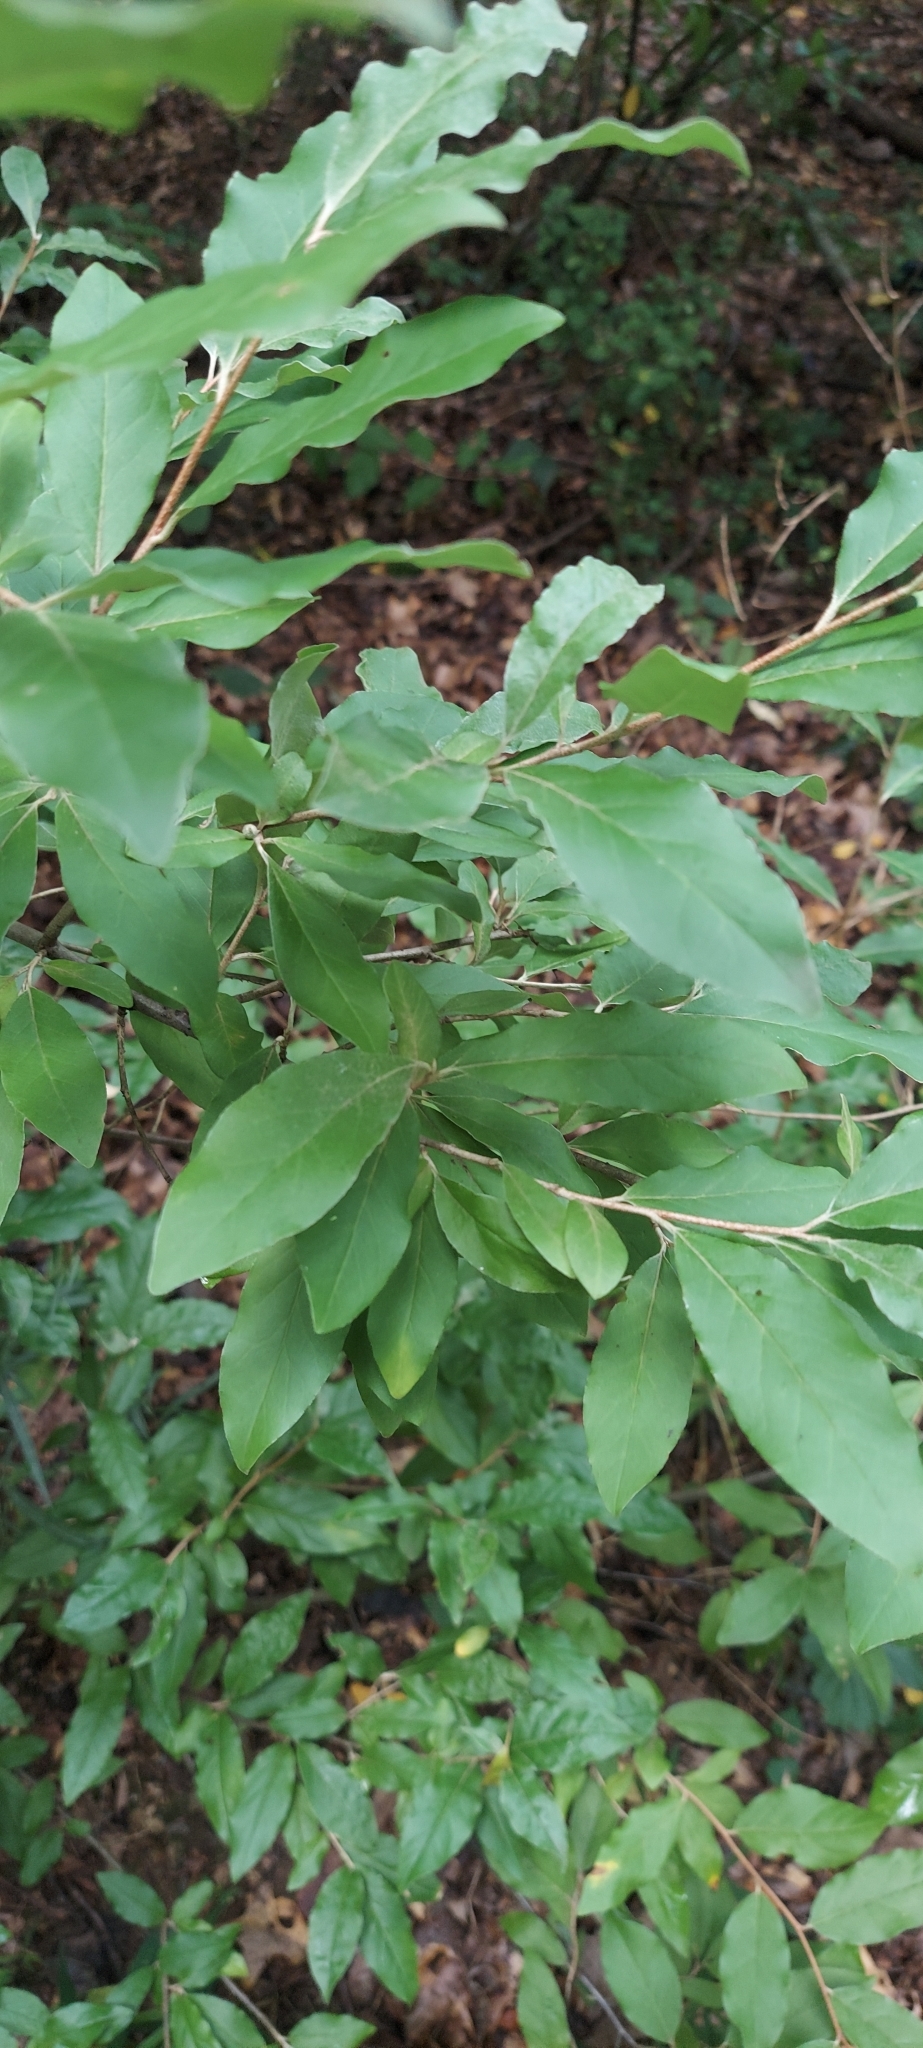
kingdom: Plantae
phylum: Tracheophyta
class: Magnoliopsida
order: Rosales
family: Elaeagnaceae
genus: Elaeagnus
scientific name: Elaeagnus umbellata
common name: Autumn olive
